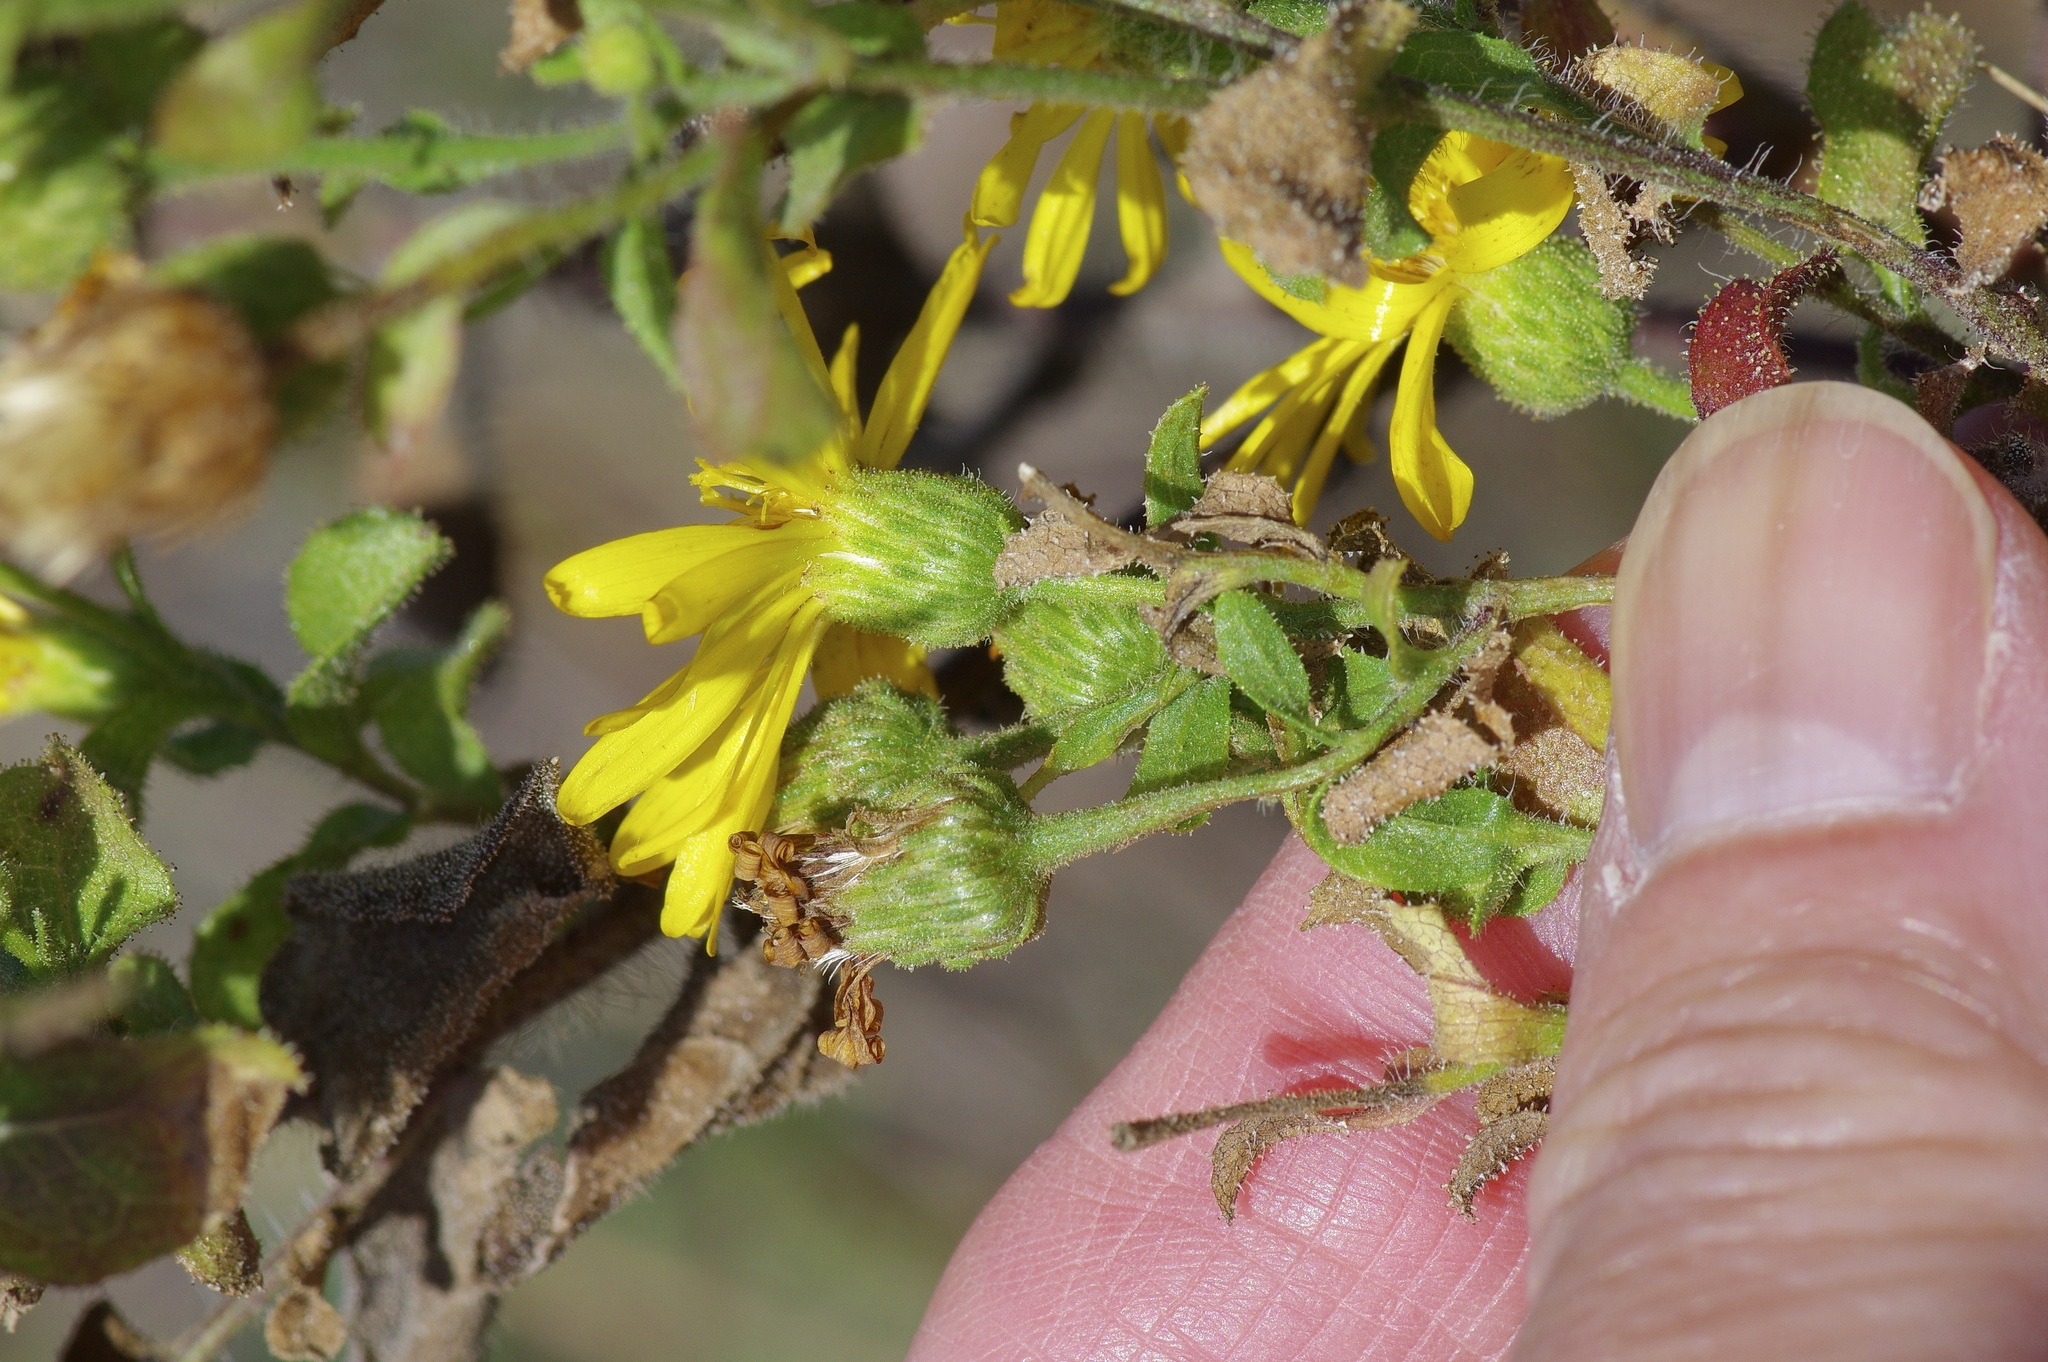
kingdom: Plantae
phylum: Tracheophyta
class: Magnoliopsida
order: Asterales
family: Asteraceae
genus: Heterotheca
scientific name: Heterotheca subaxillaris
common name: Camphorweed
